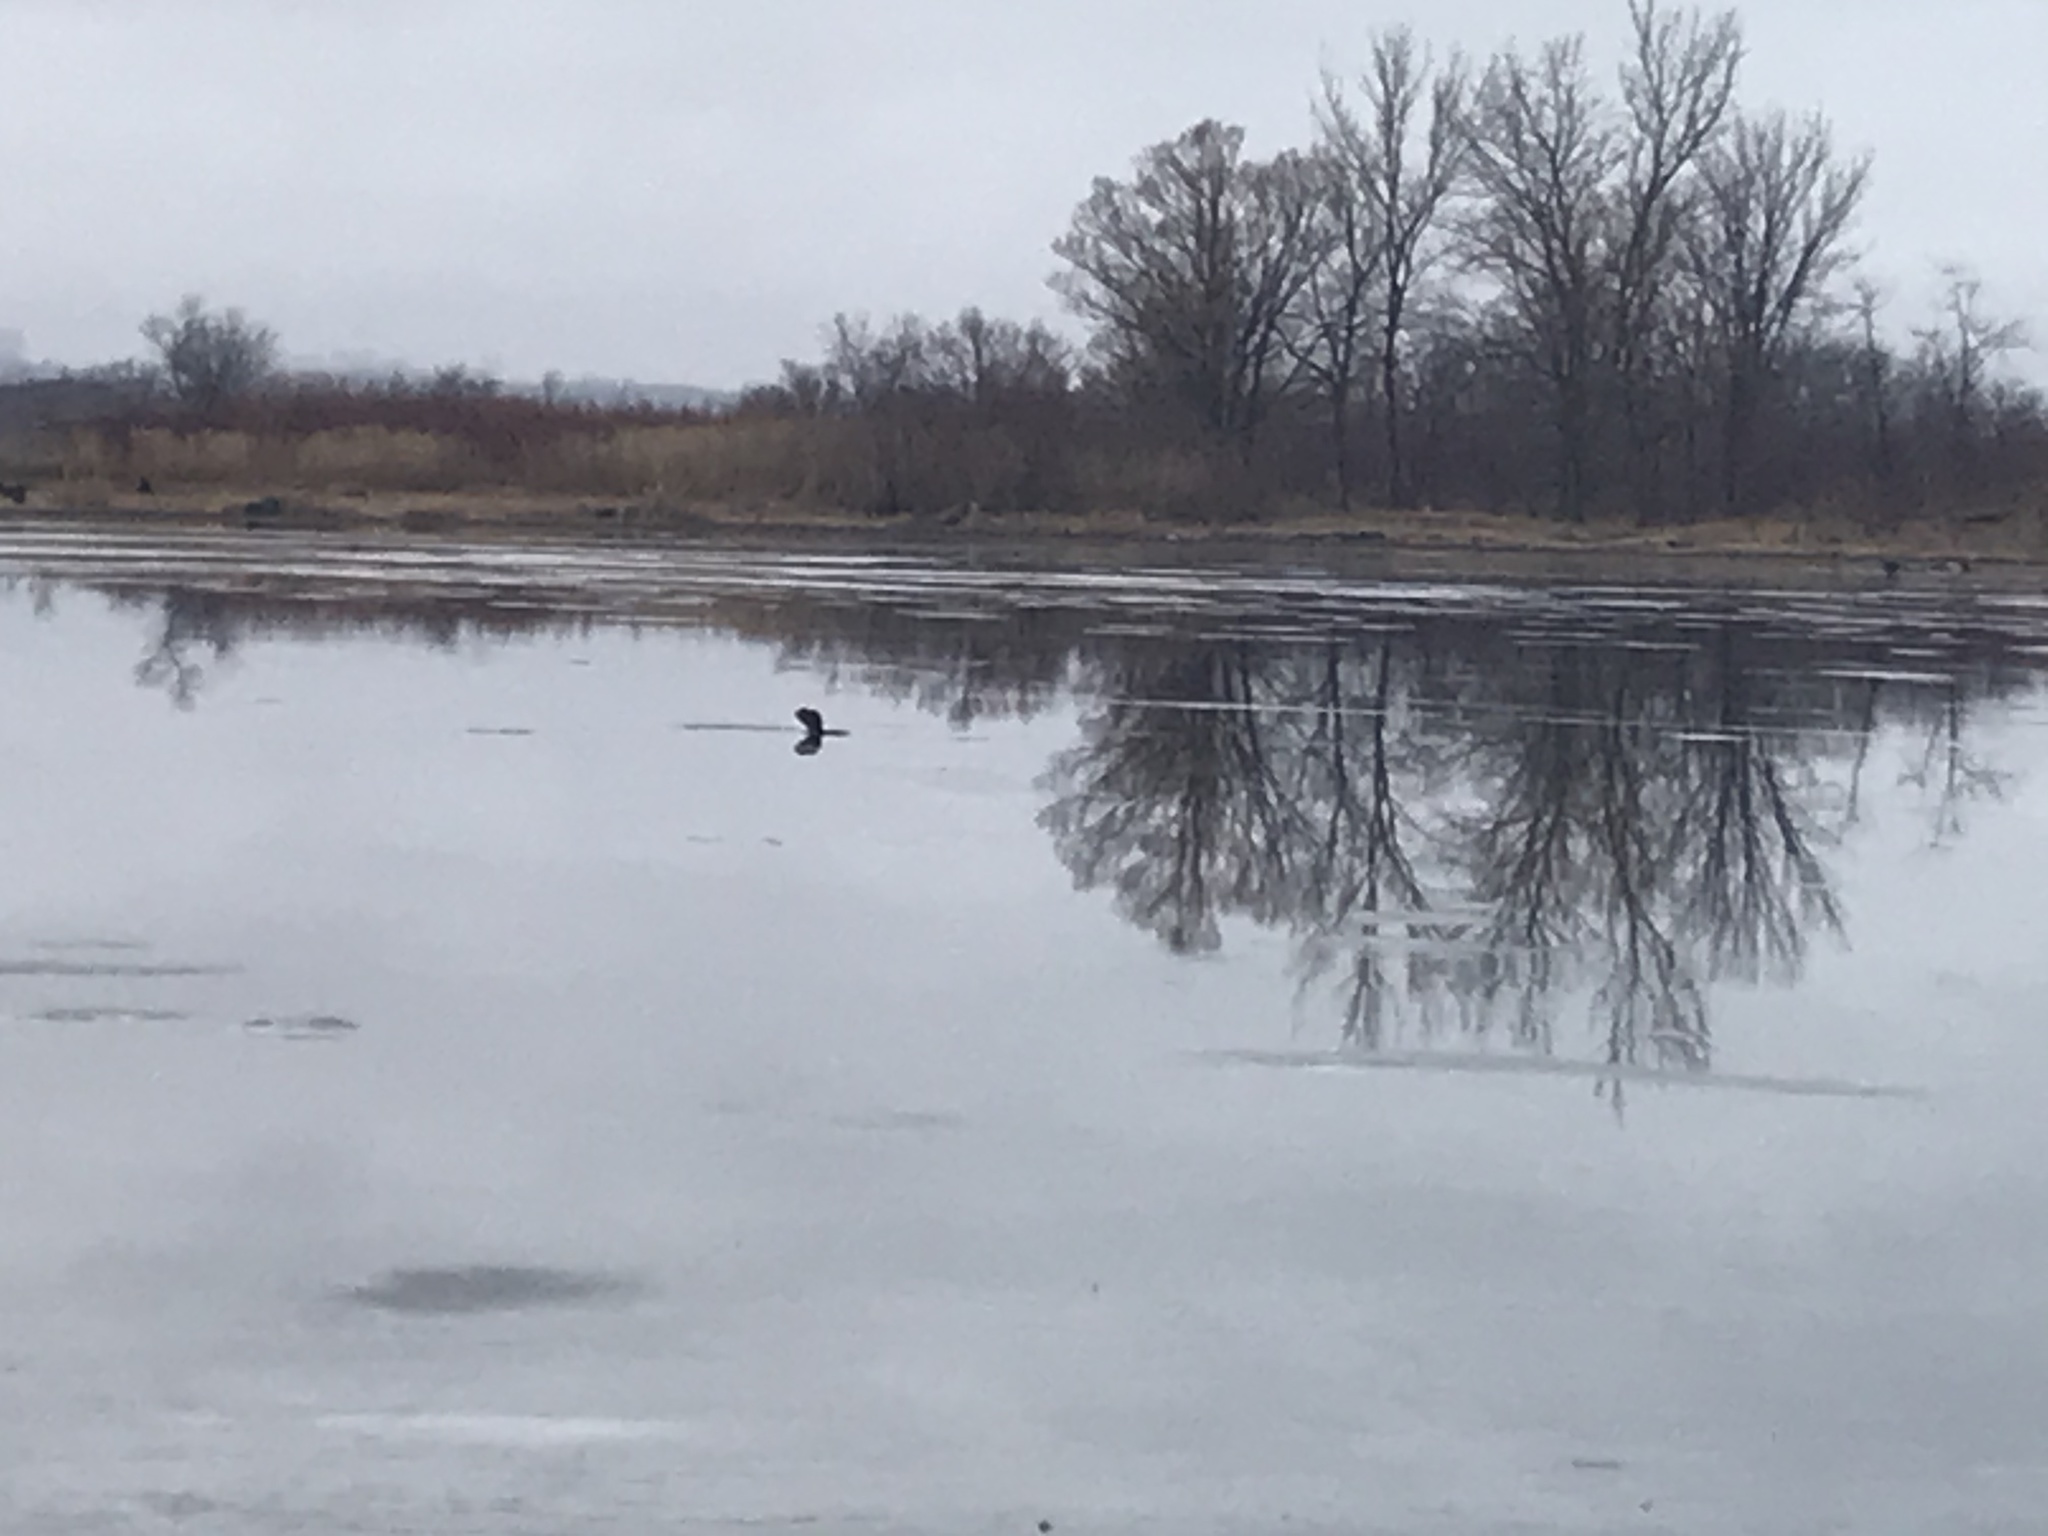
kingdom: Animalia
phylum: Chordata
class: Mammalia
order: Rodentia
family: Castoridae
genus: Castor
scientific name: Castor canadensis
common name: American beaver
